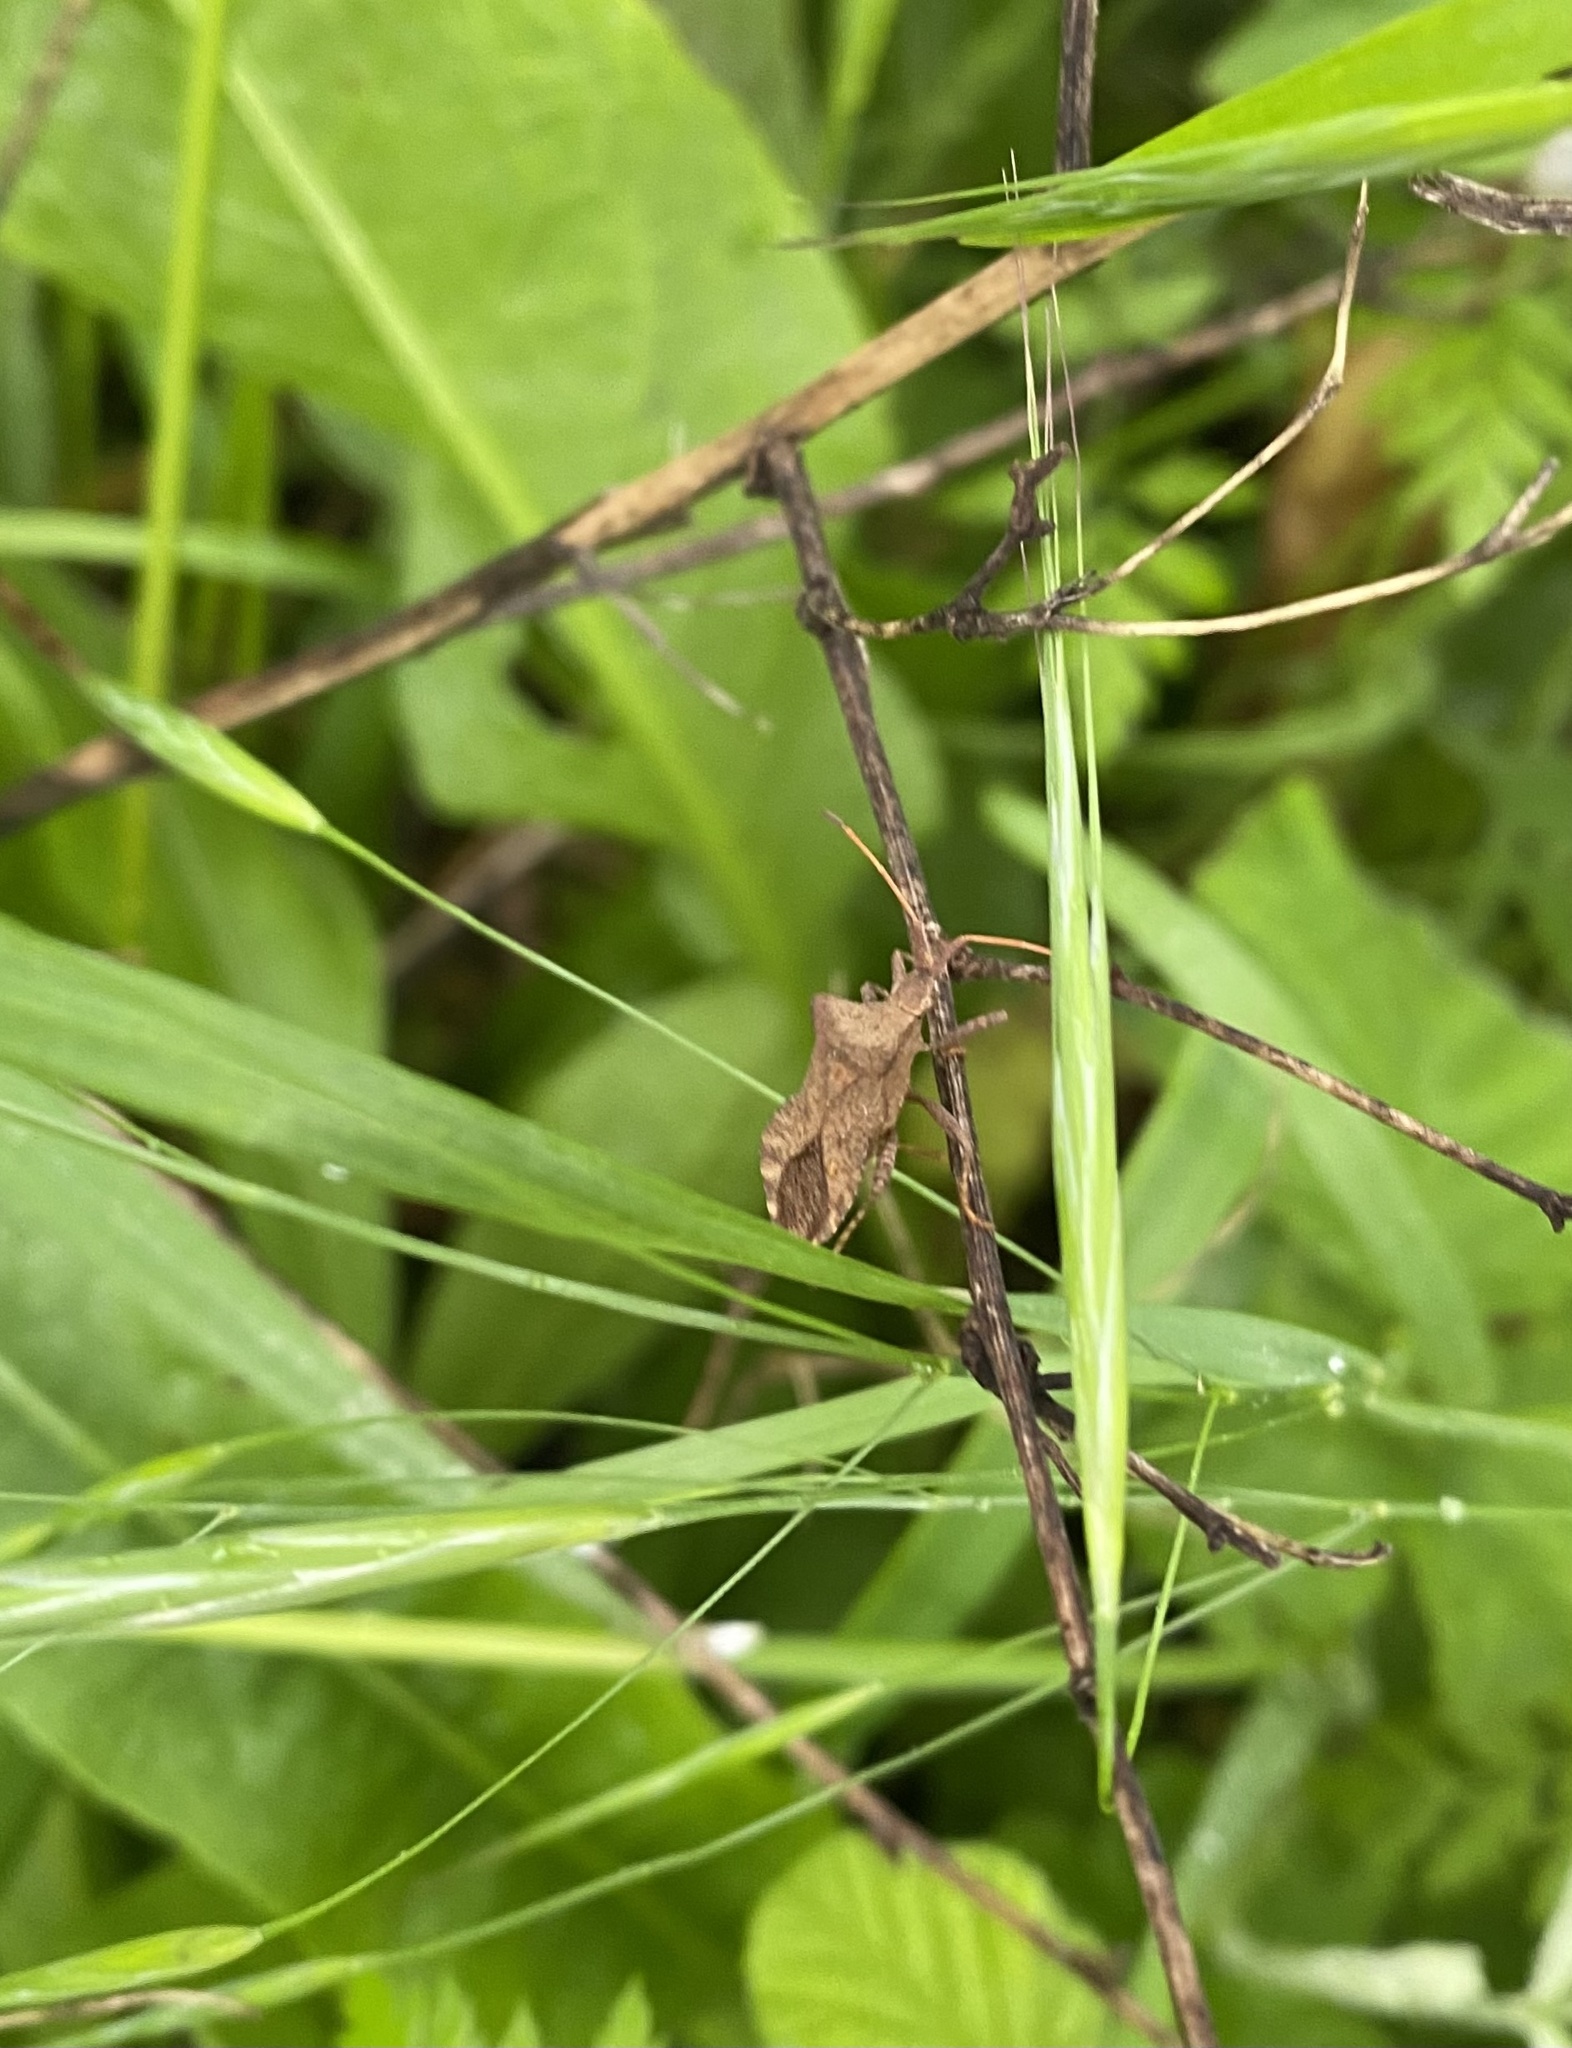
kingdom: Animalia
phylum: Arthropoda
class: Insecta
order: Hemiptera
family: Coreidae
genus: Coreus
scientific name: Coreus marginatus
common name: Dock bug
